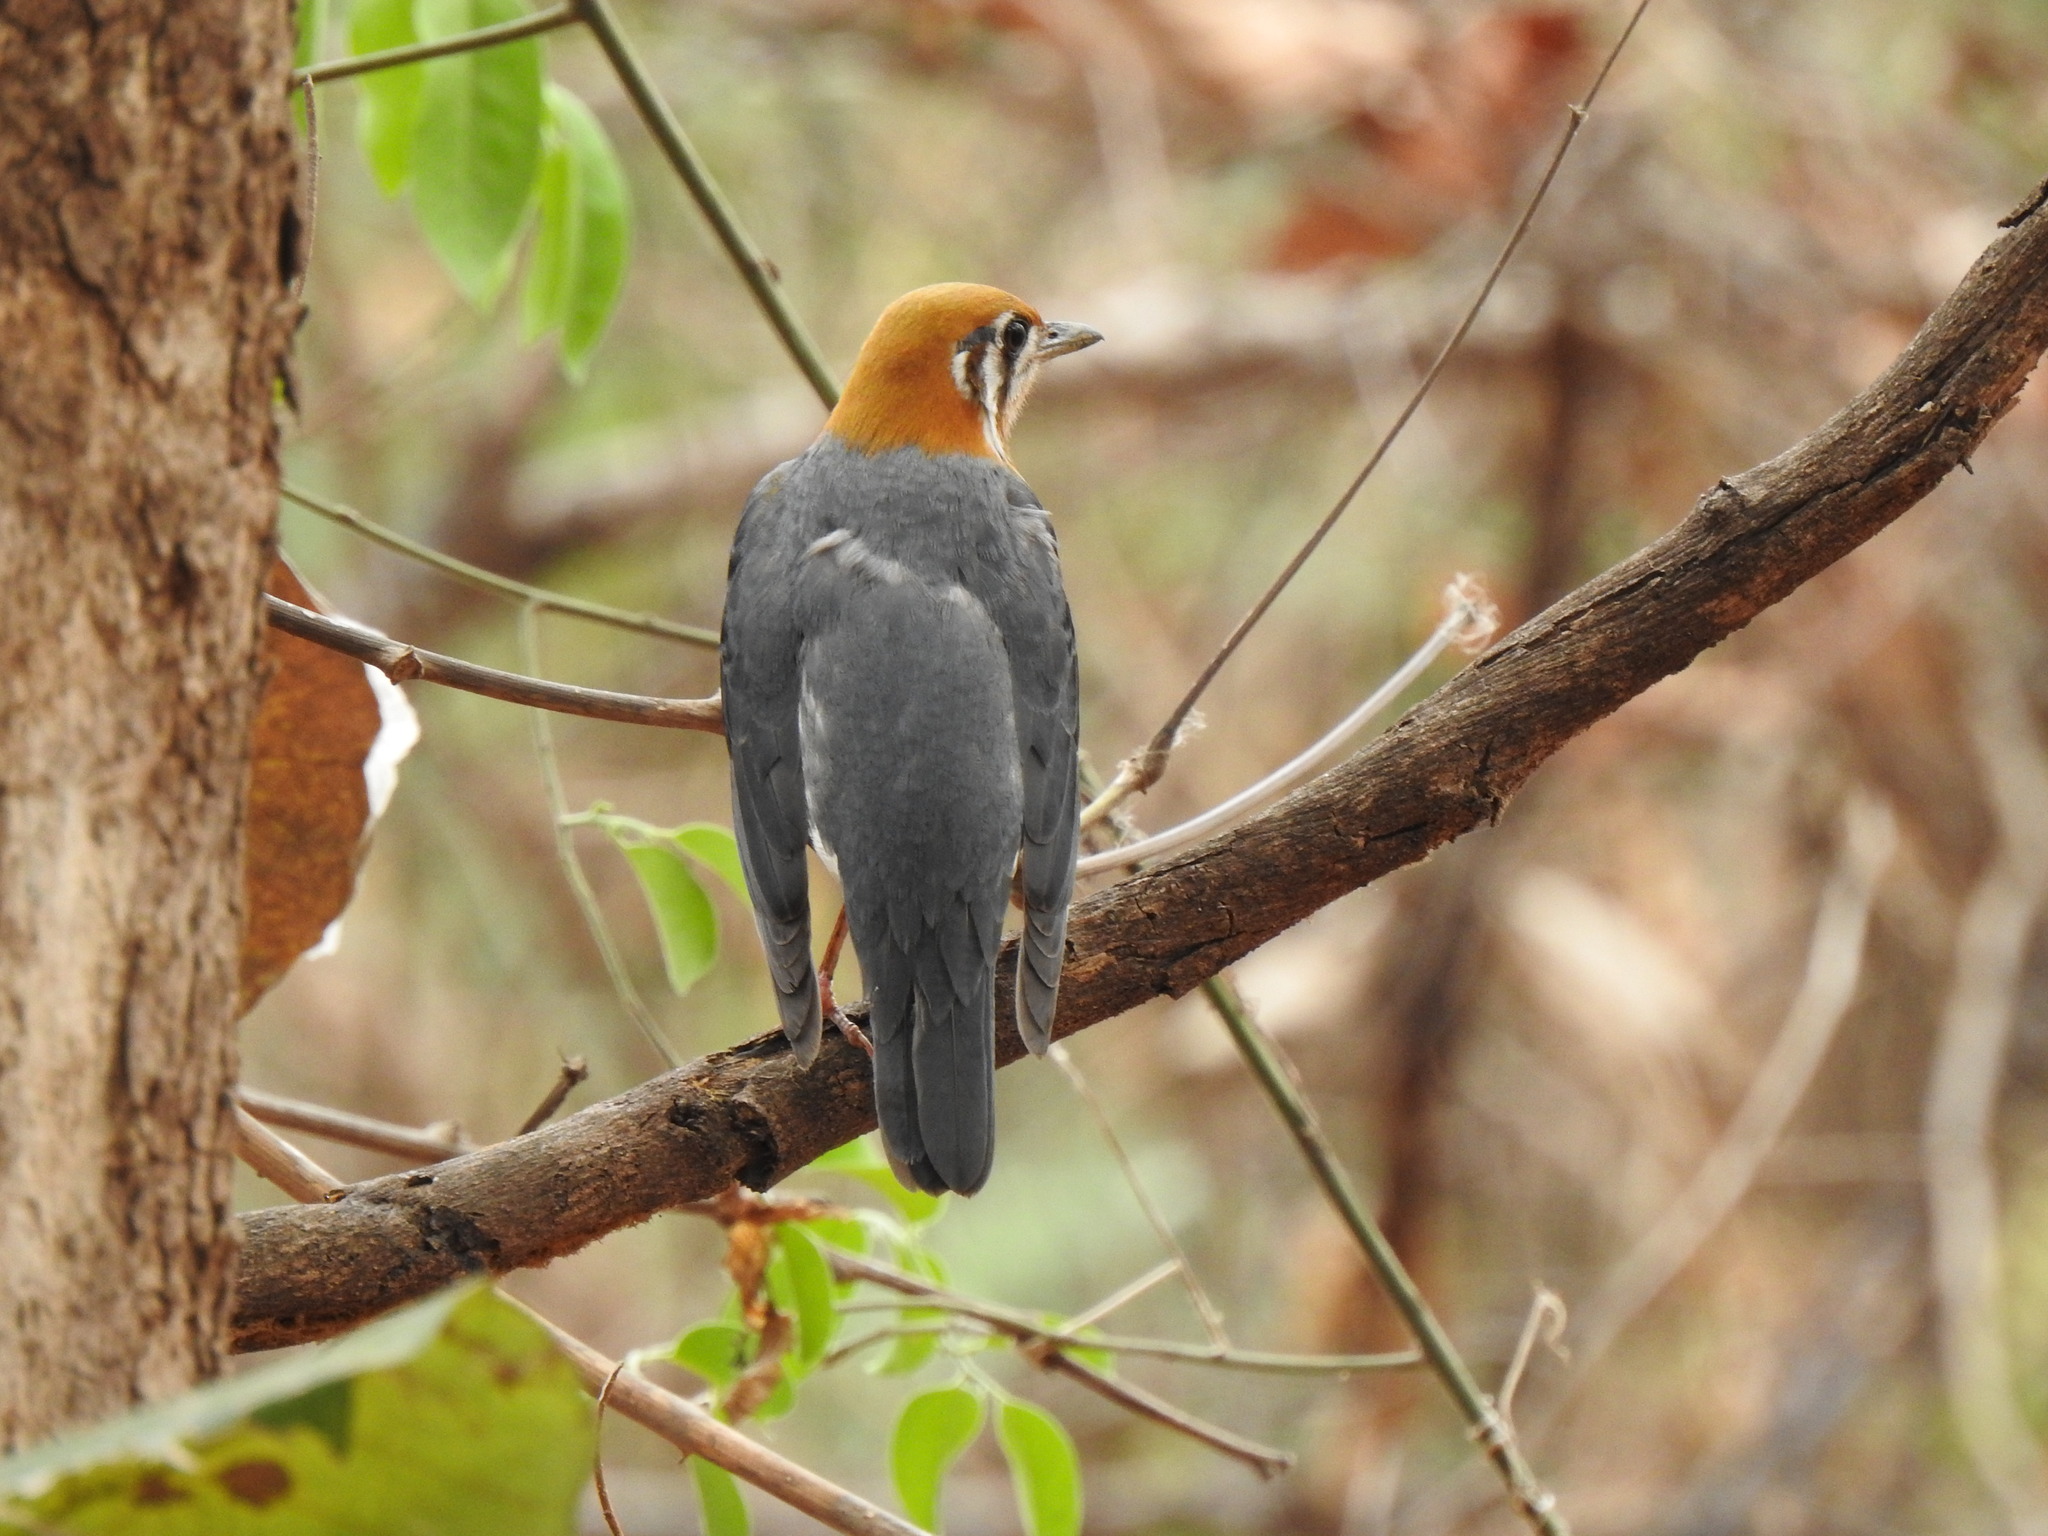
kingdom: Animalia
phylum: Chordata
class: Aves
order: Passeriformes
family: Turdidae
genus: Geokichla
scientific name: Geokichla citrina
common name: Orange-headed thrush
